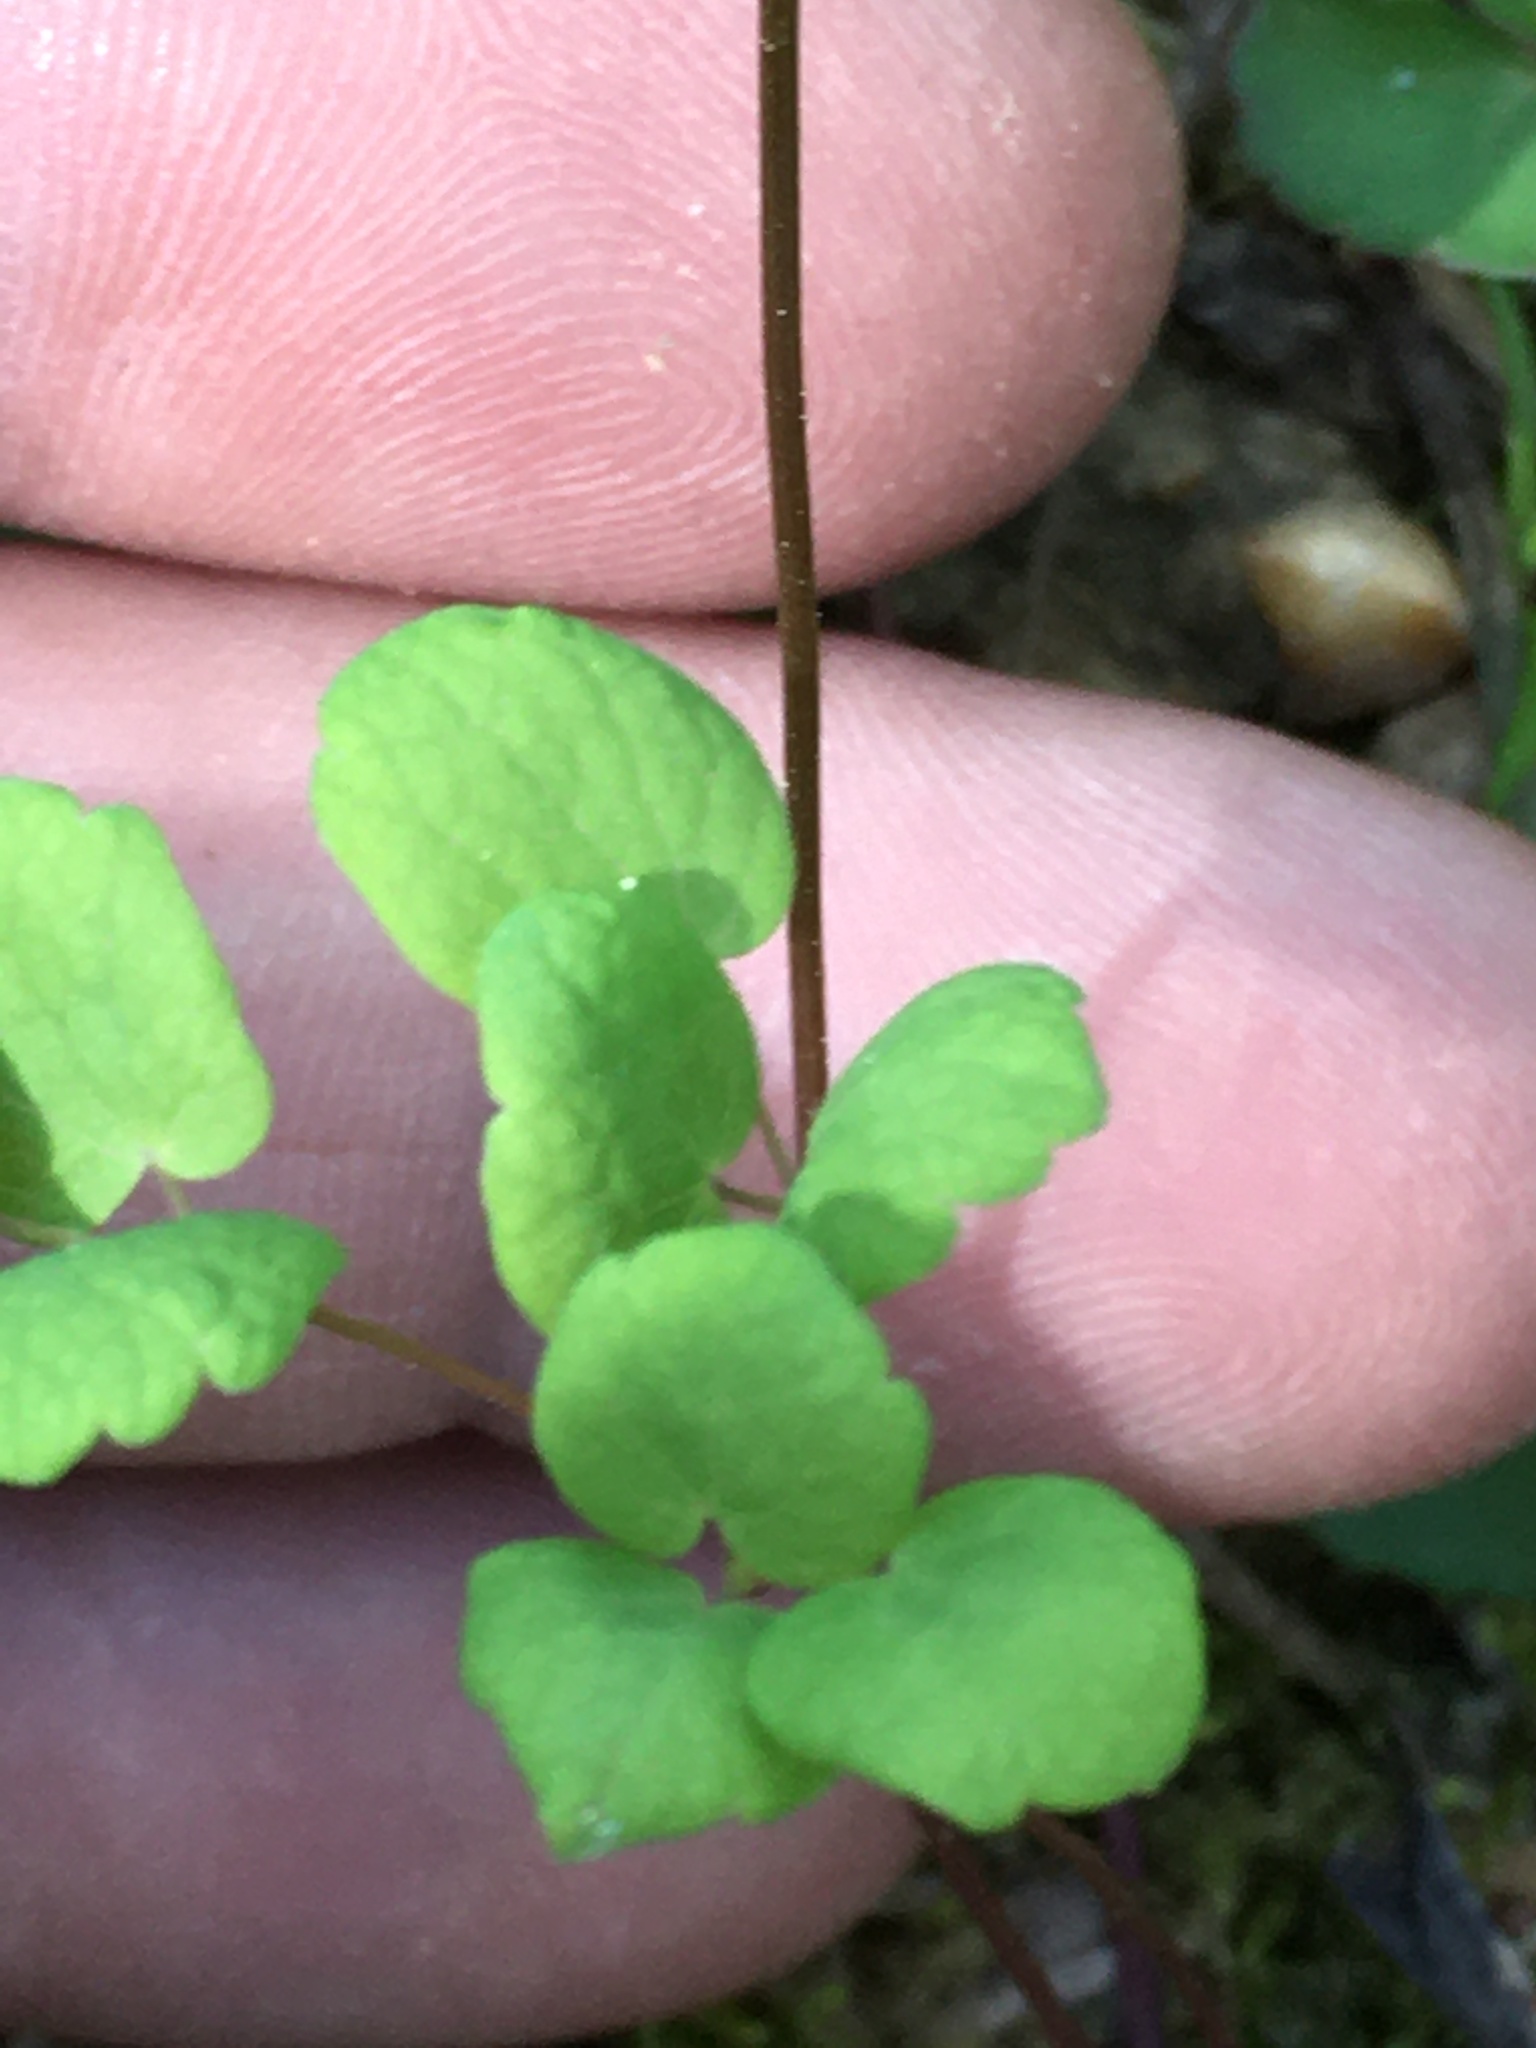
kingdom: Plantae
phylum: Tracheophyta
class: Magnoliopsida
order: Ranunculales
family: Ranunculaceae
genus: Thalictrum
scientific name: Thalictrum thalictroides
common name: Rue-anemone
